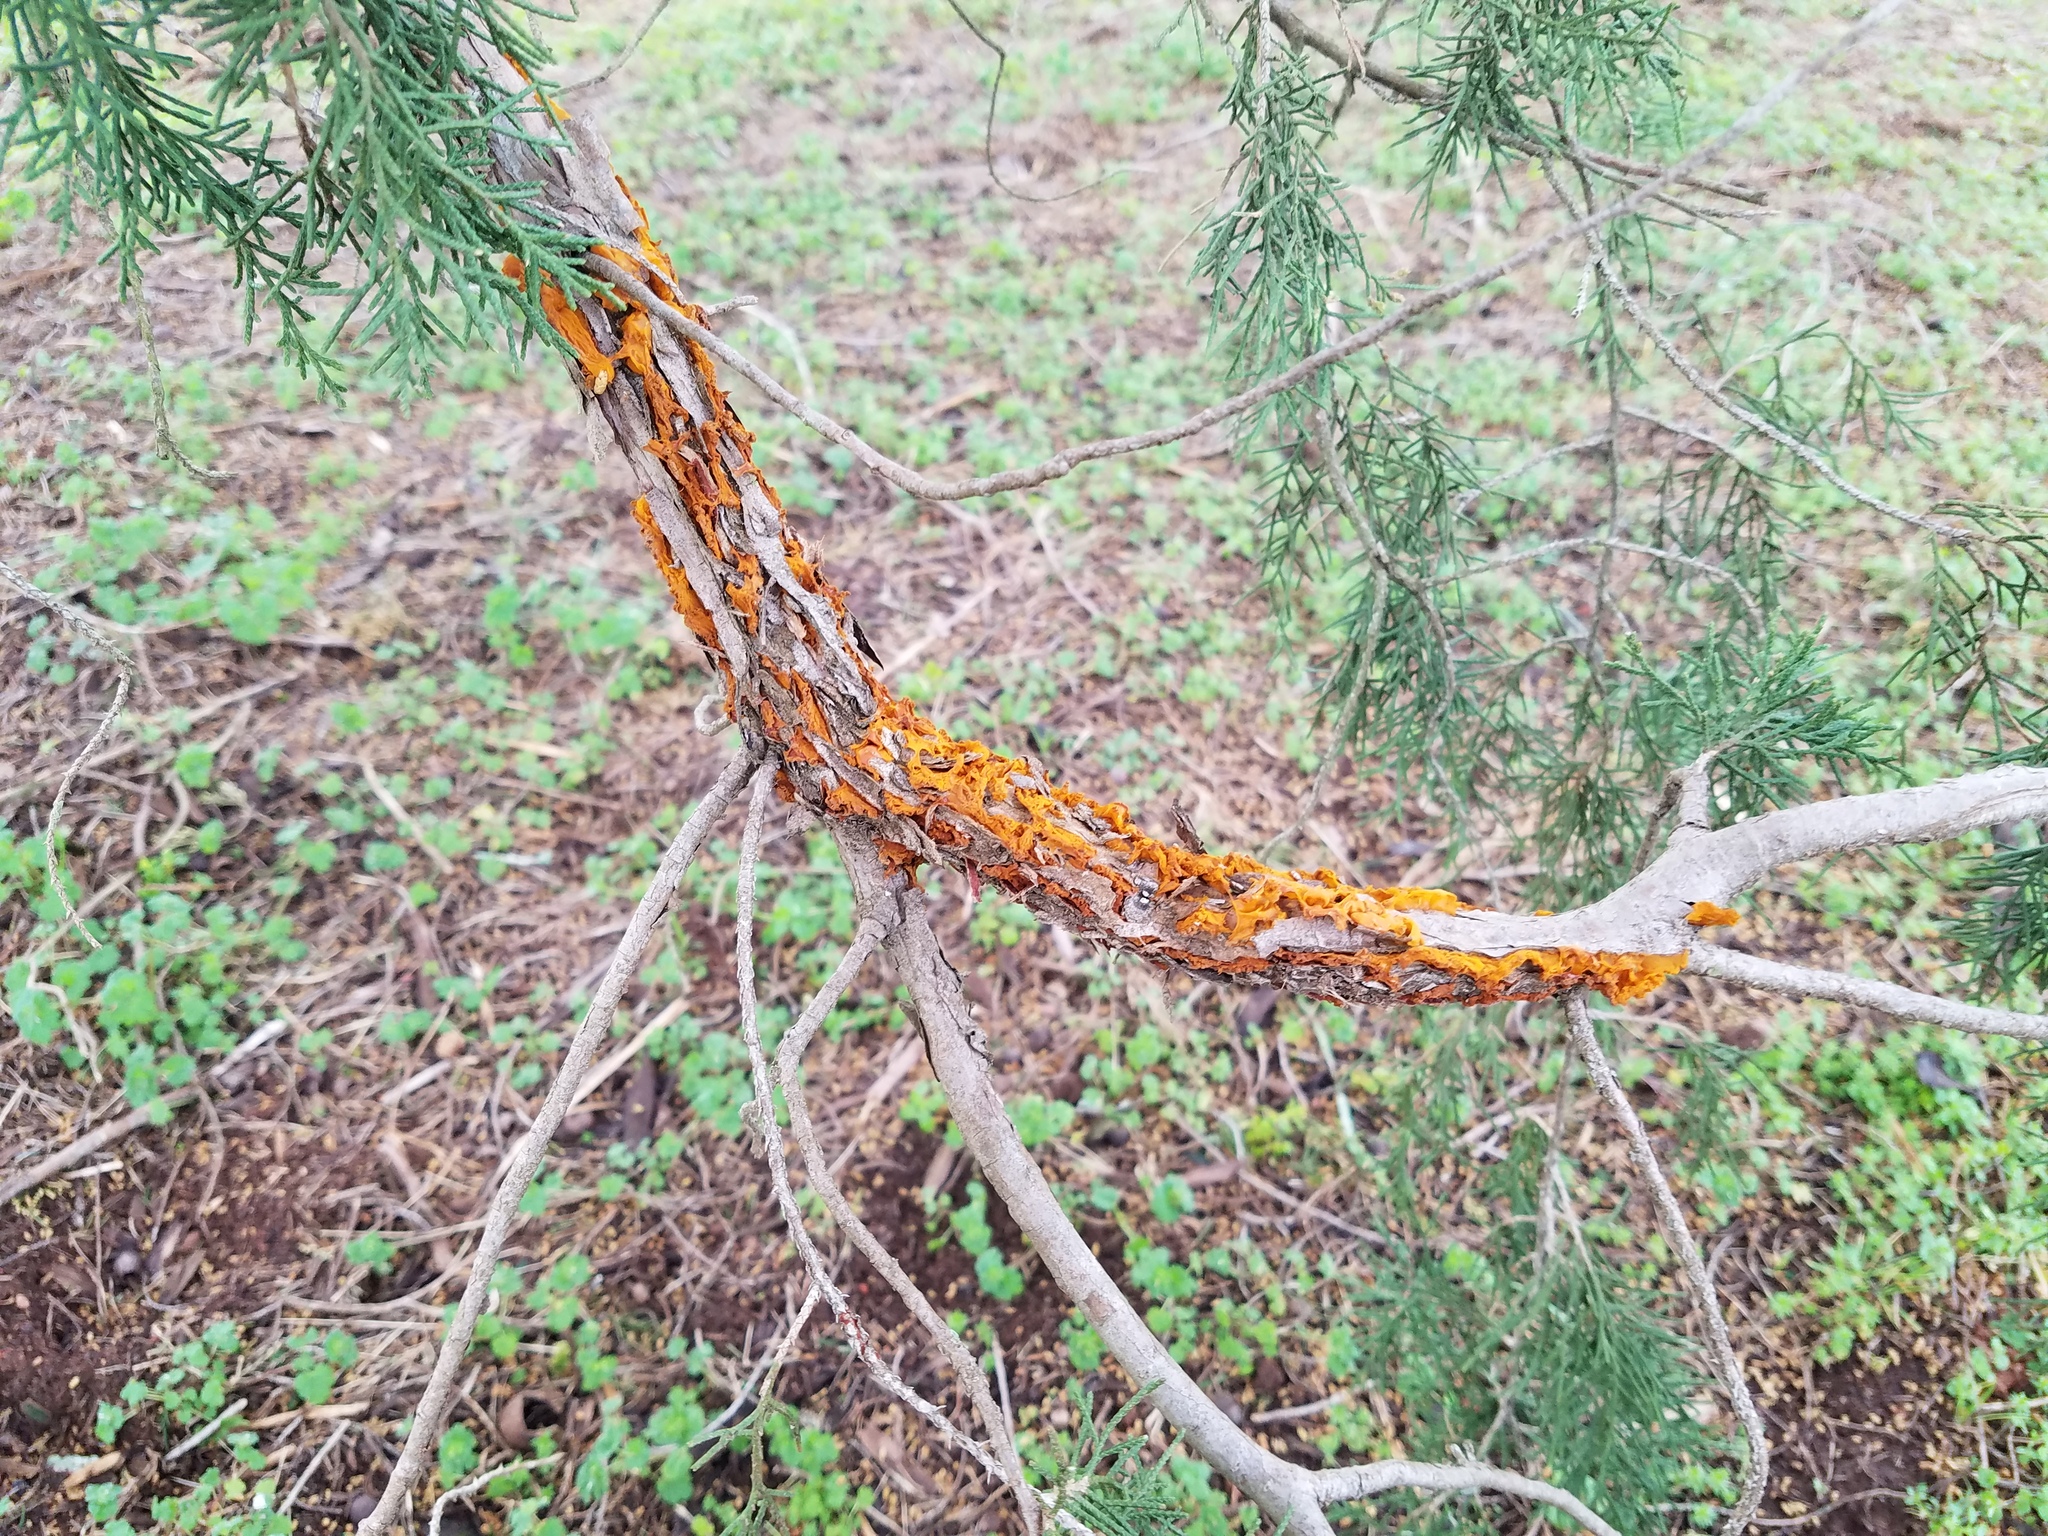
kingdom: Fungi
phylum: Basidiomycota
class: Pucciniomycetes
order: Pucciniales
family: Gymnosporangiaceae
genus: Gymnosporangium
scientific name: Gymnosporangium clavipes
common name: Quince rust
